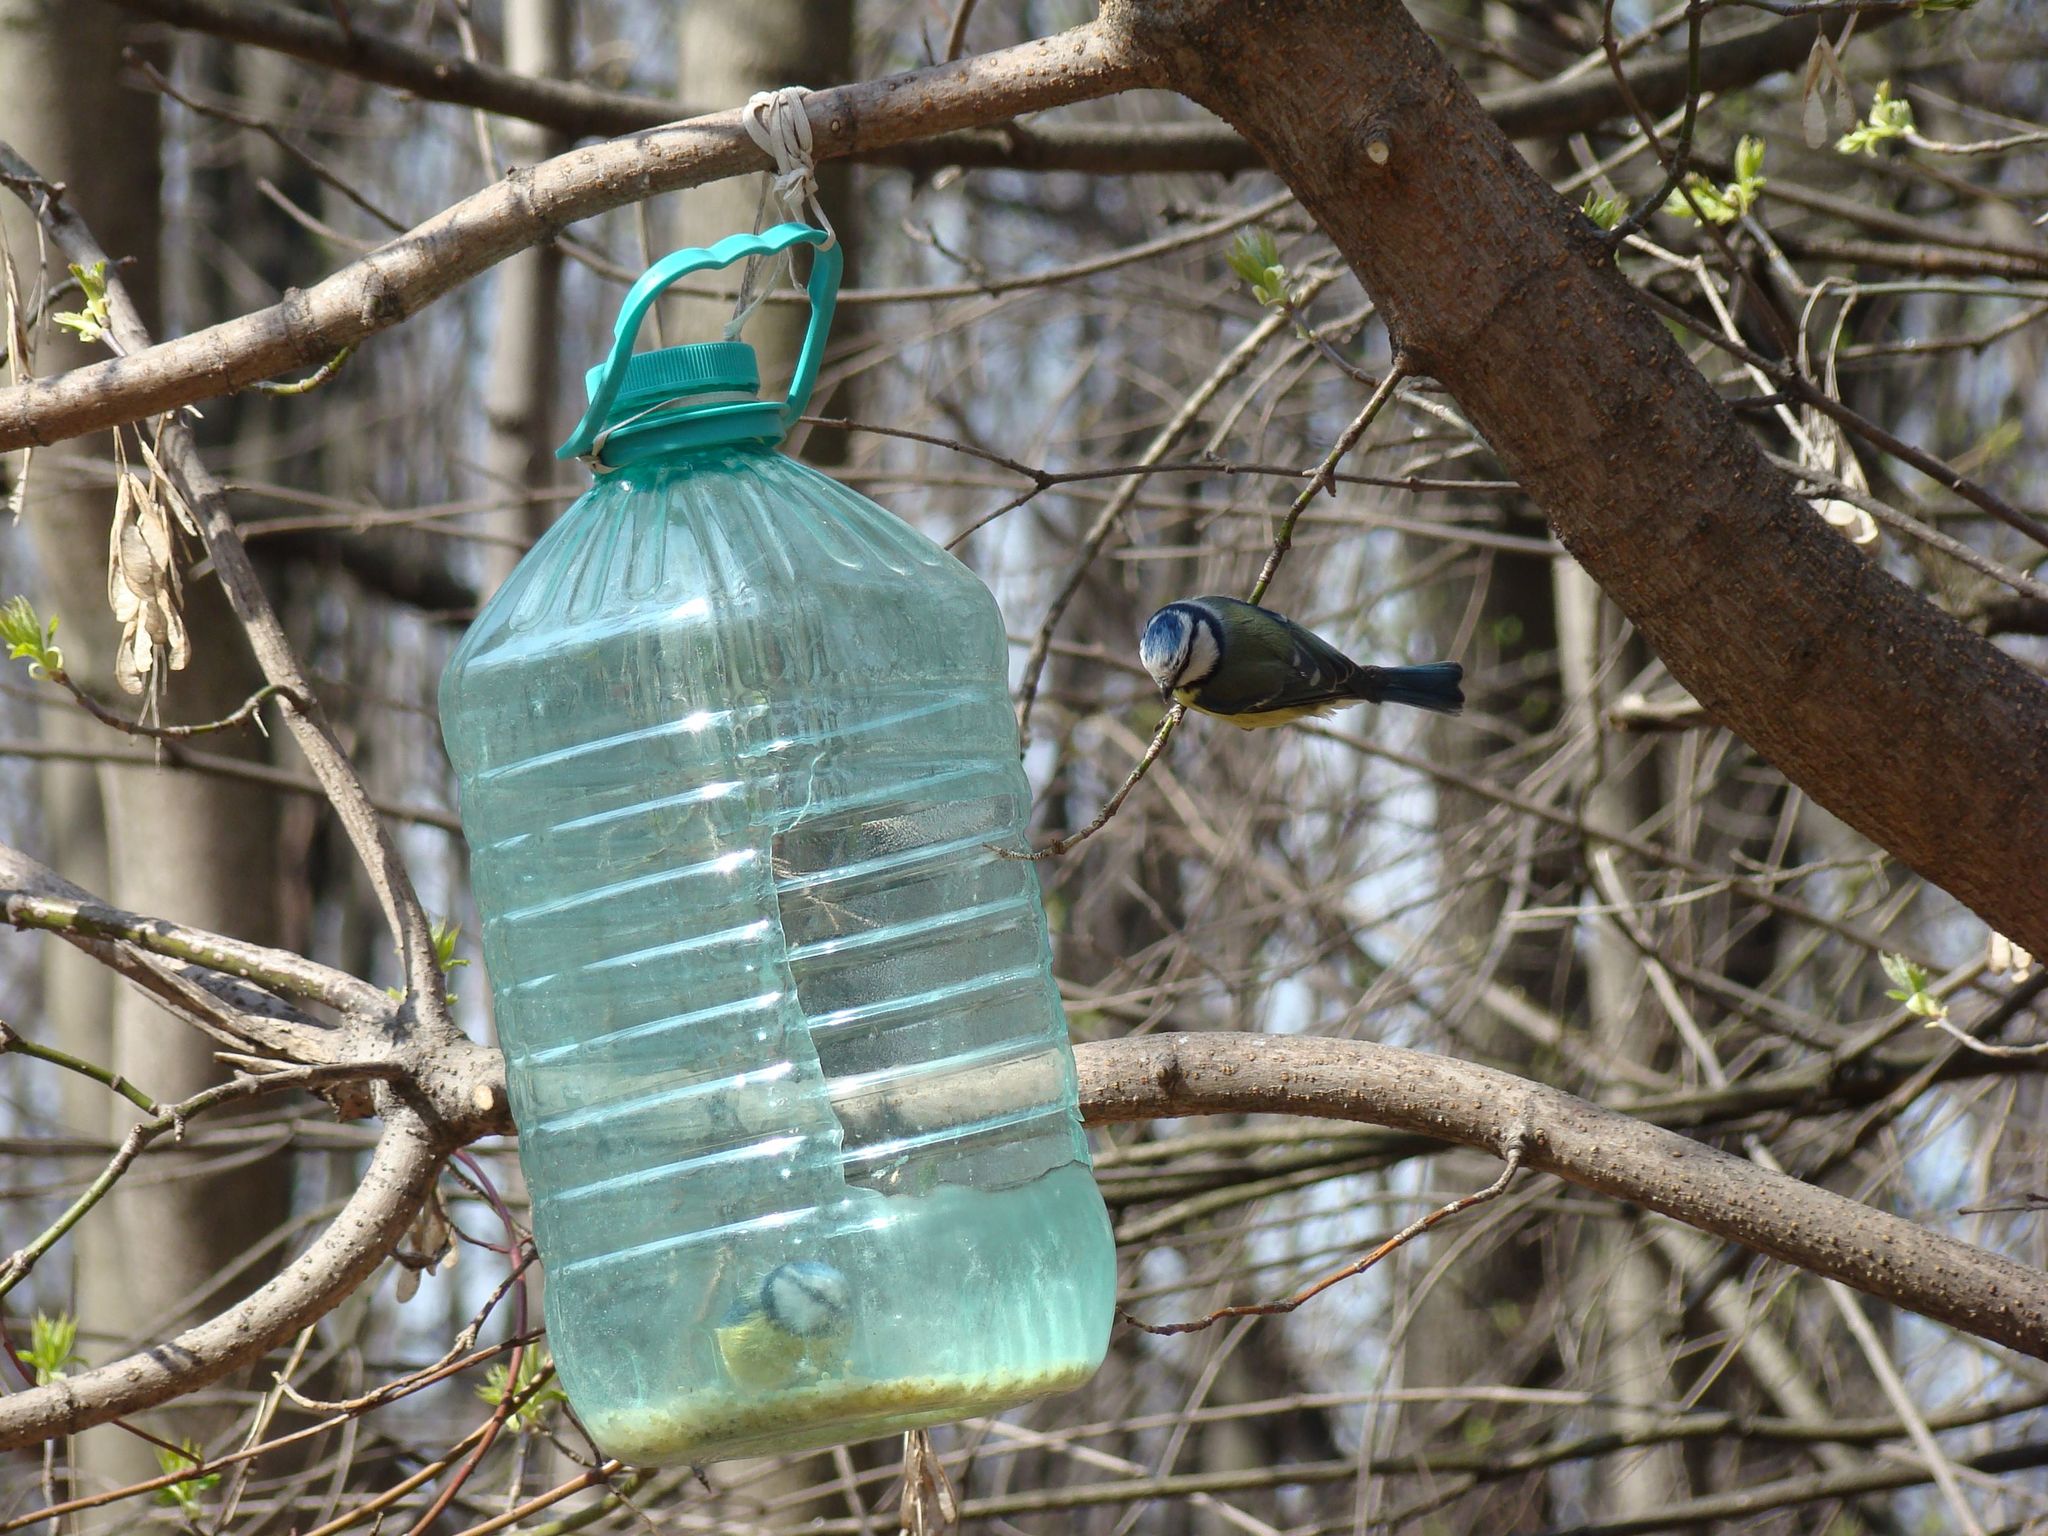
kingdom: Animalia
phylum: Chordata
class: Aves
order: Passeriformes
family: Paridae
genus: Cyanistes
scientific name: Cyanistes caeruleus
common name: Eurasian blue tit
